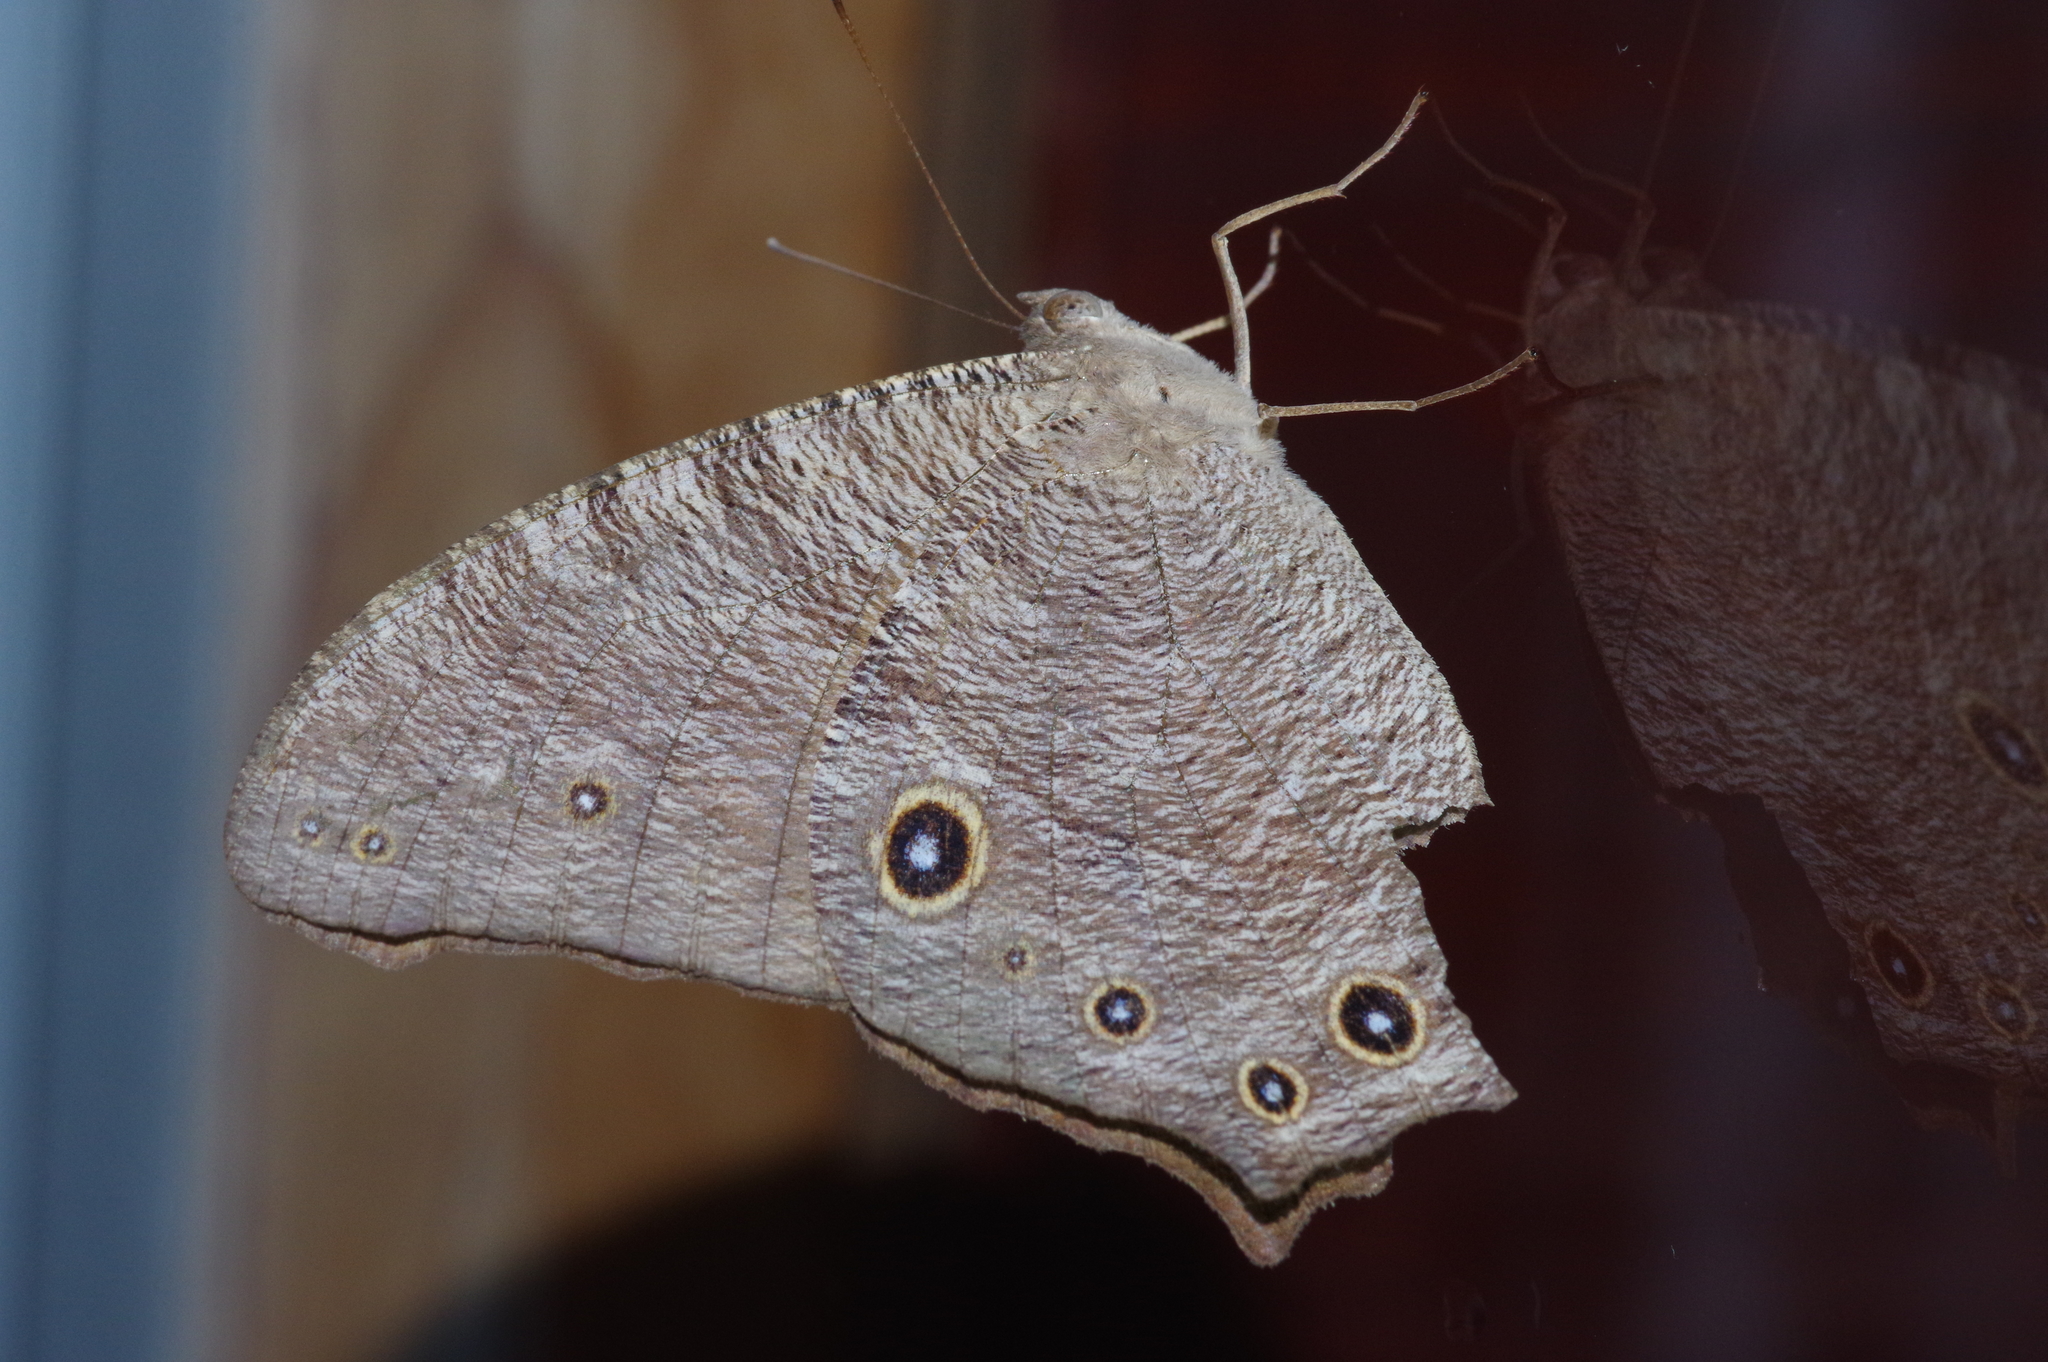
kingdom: Animalia
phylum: Arthropoda
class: Insecta
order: Lepidoptera
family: Nymphalidae
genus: Melanitis
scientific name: Melanitis leda
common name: Twilight brown
